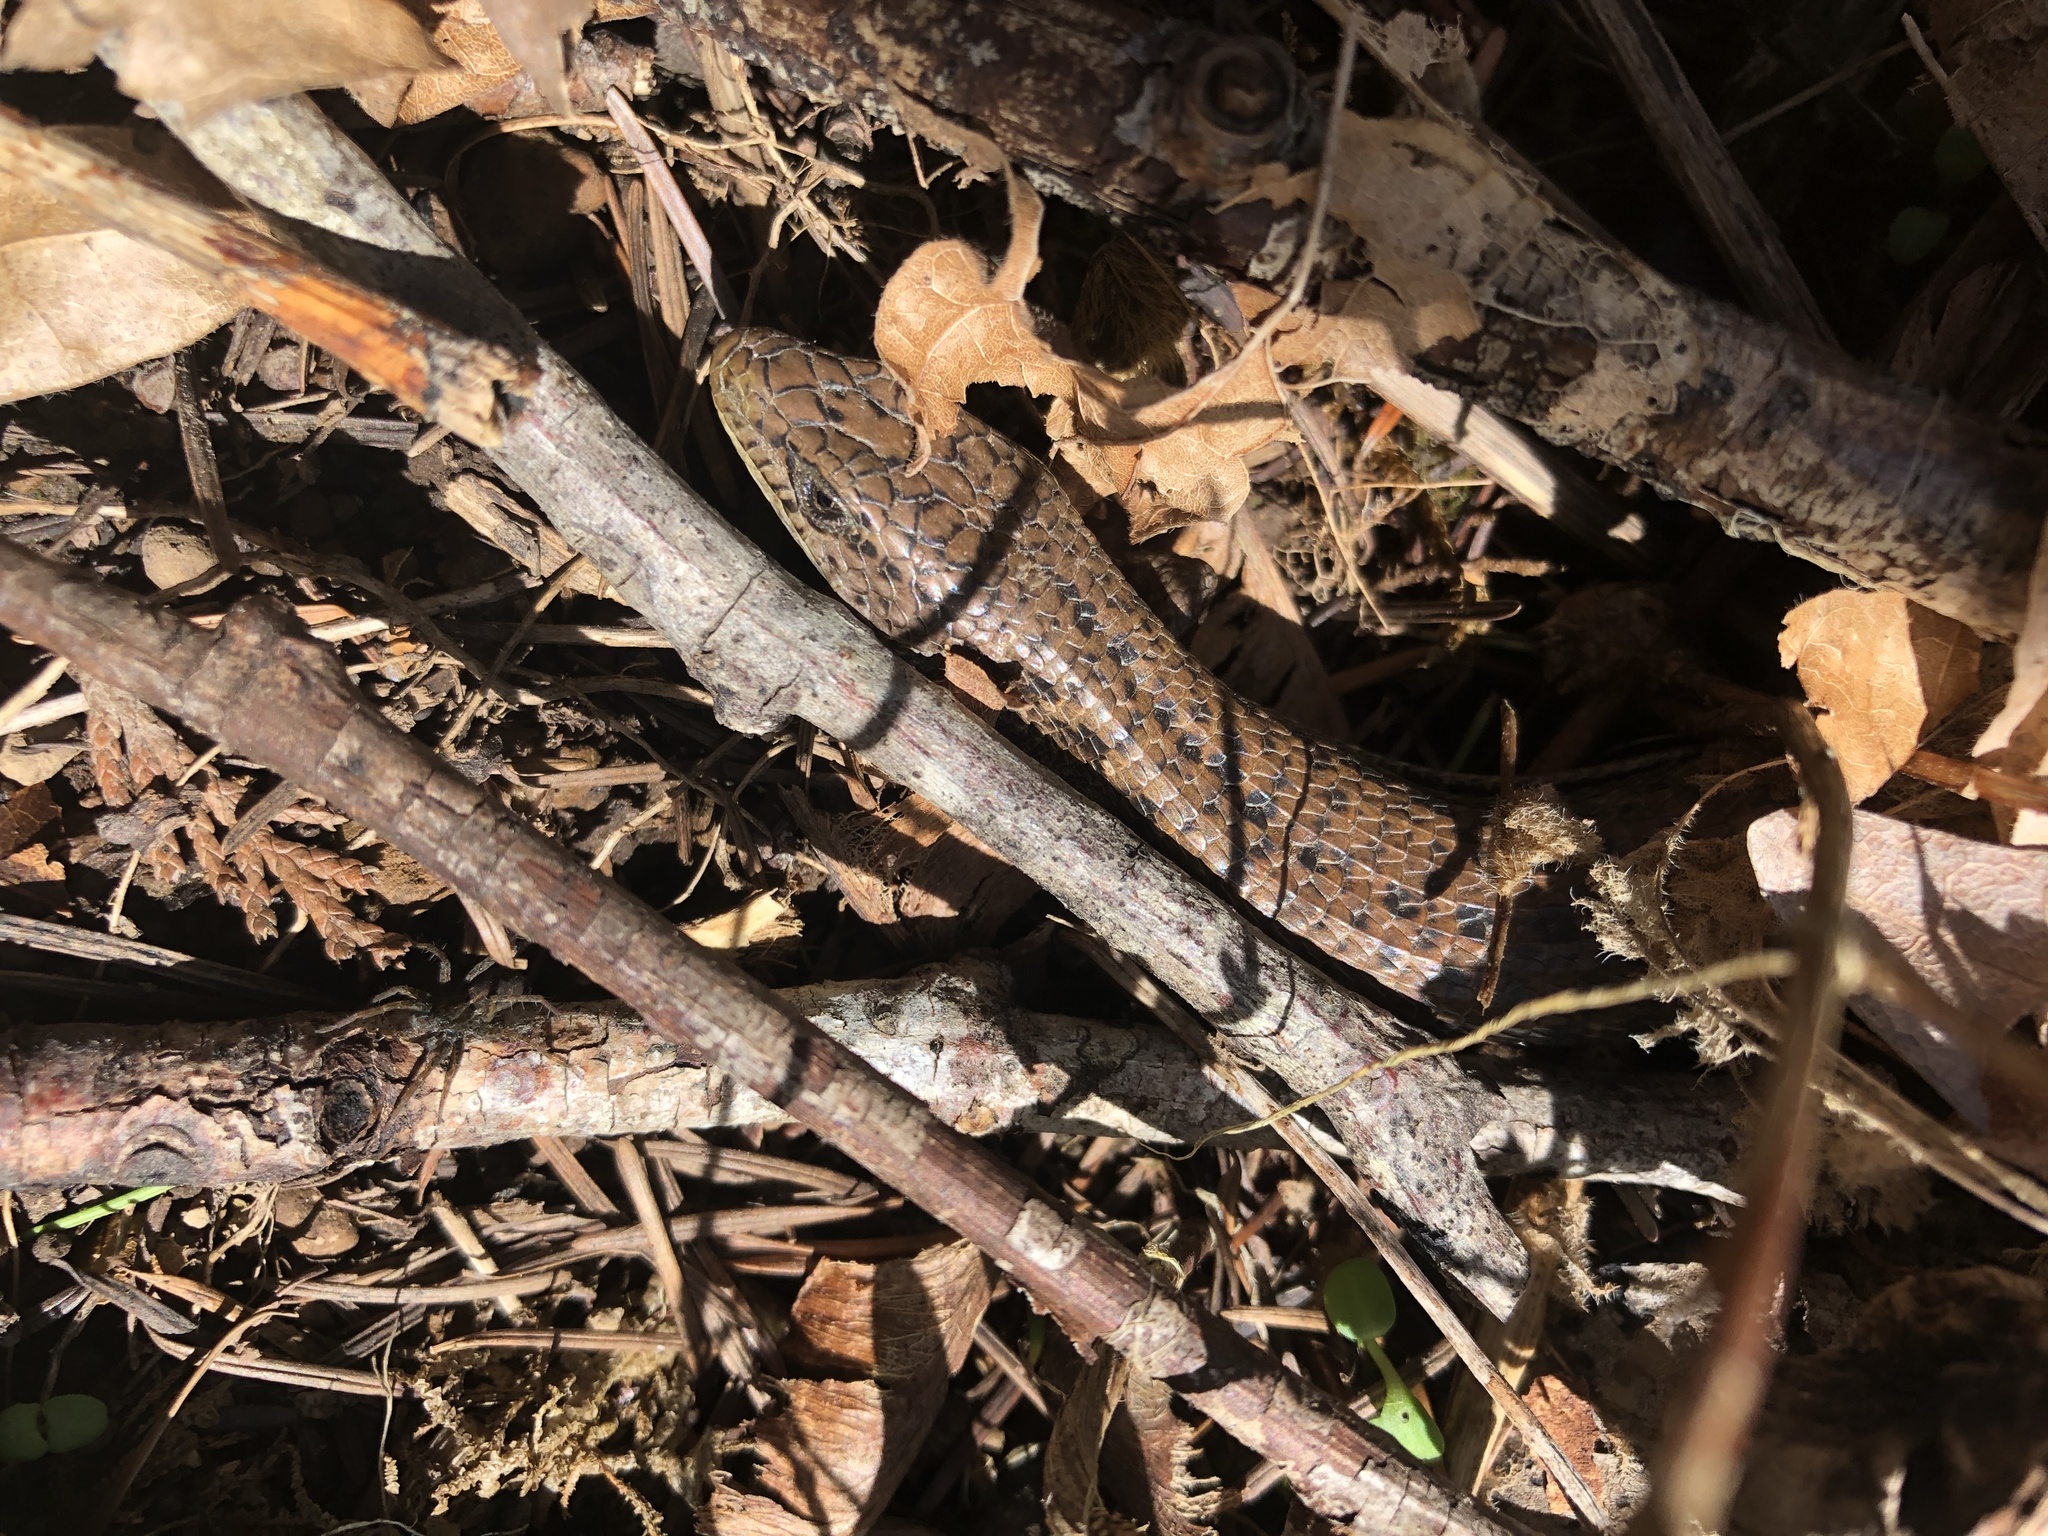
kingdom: Animalia
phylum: Chordata
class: Squamata
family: Anguidae
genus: Elgaria
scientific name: Elgaria coerulea
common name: Northern alligator lizard
